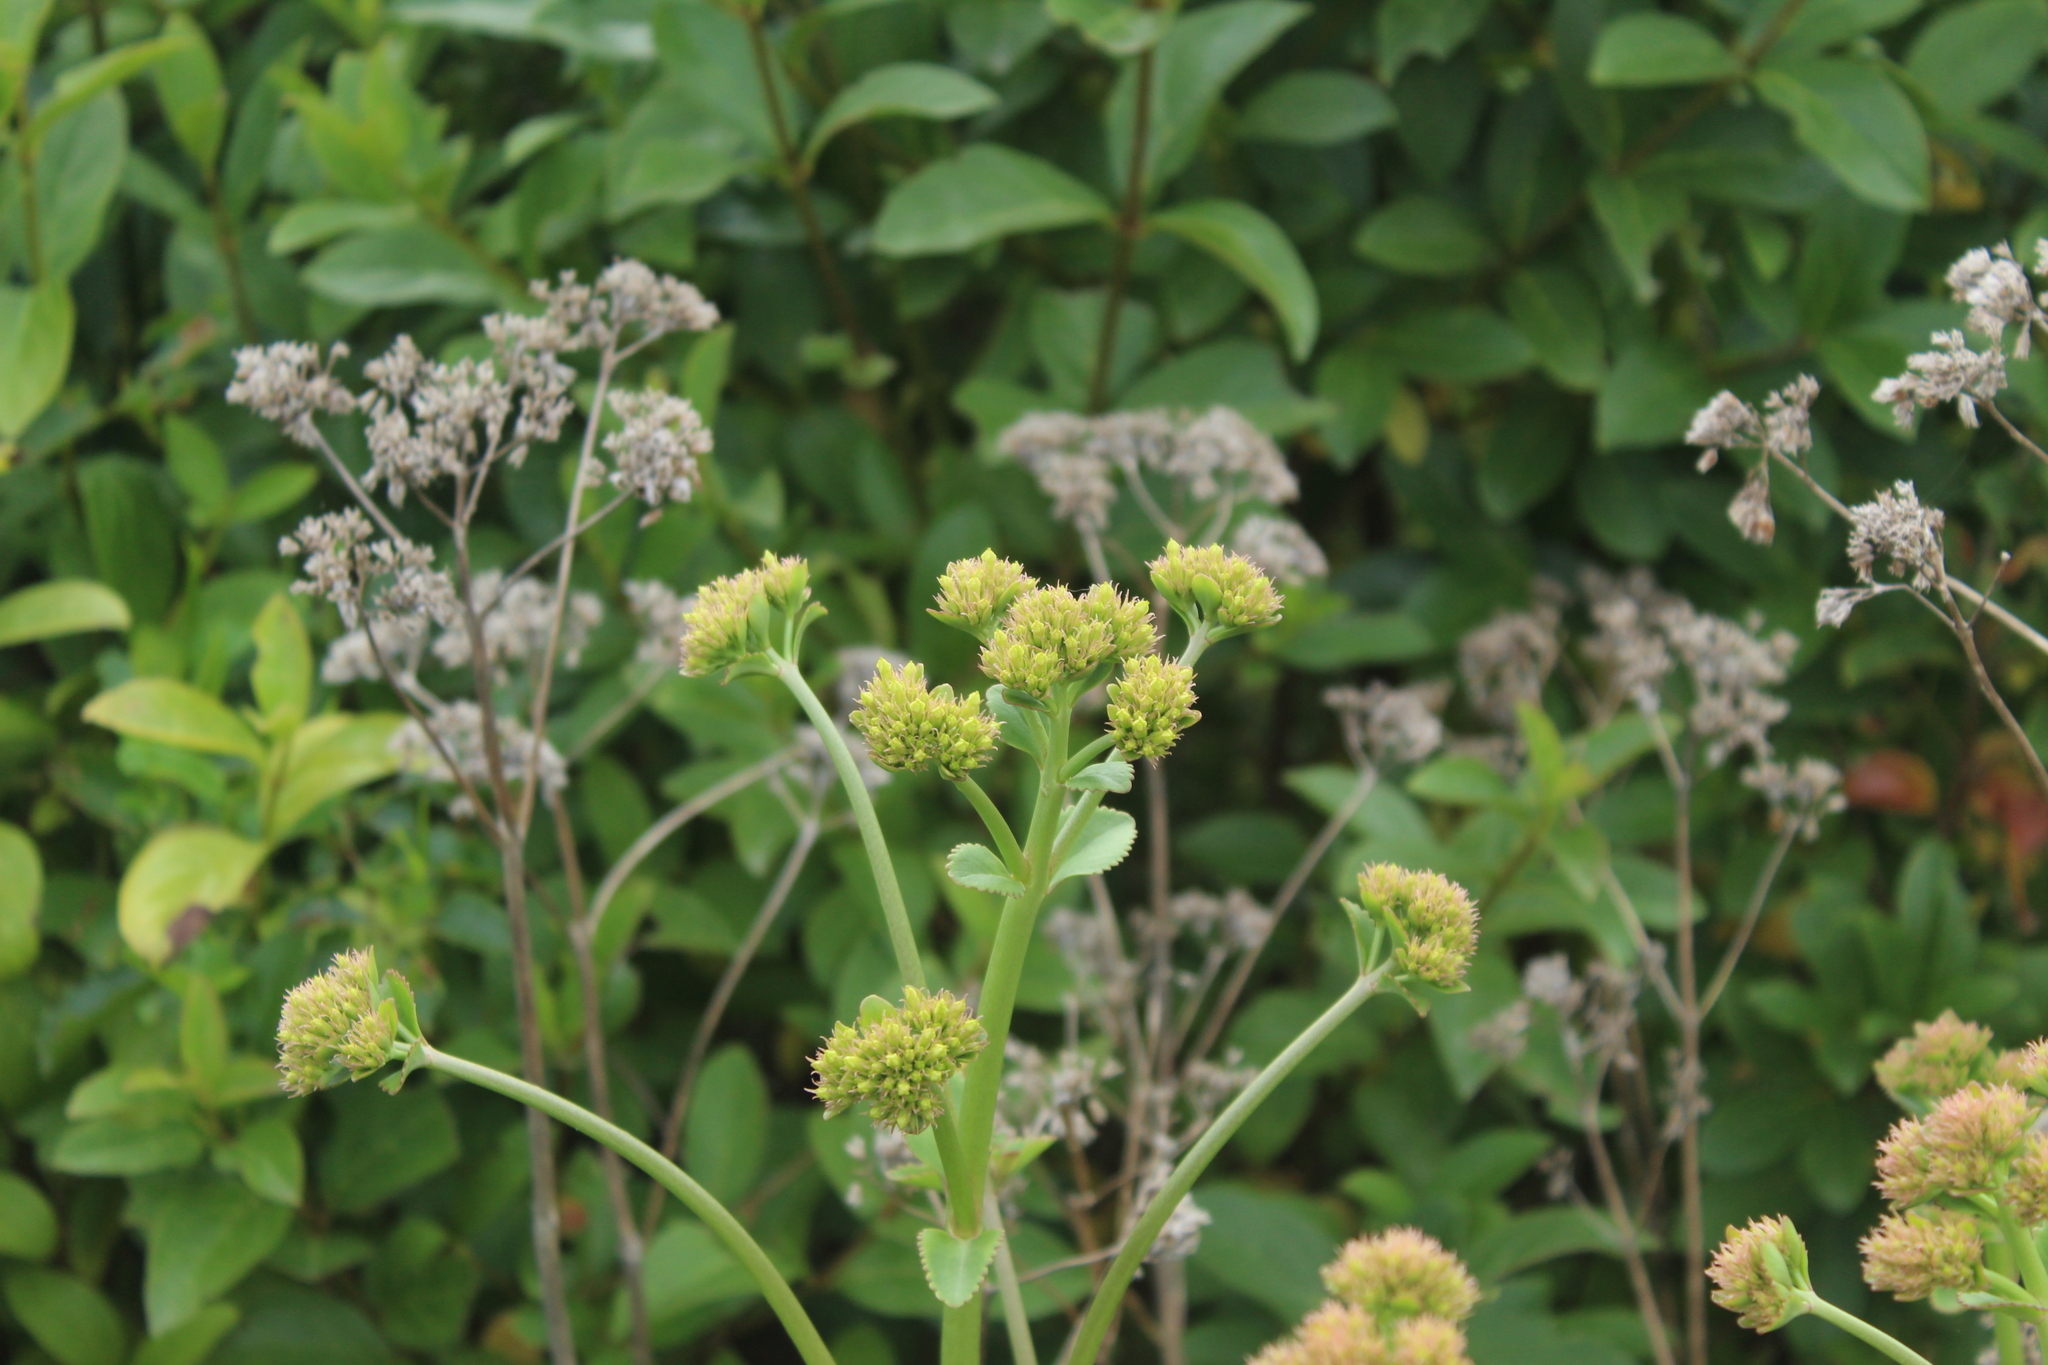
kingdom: Plantae
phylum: Tracheophyta
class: Magnoliopsida
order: Saxifragales
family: Crassulaceae
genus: Kalanchoe
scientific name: Kalanchoe densiflora
